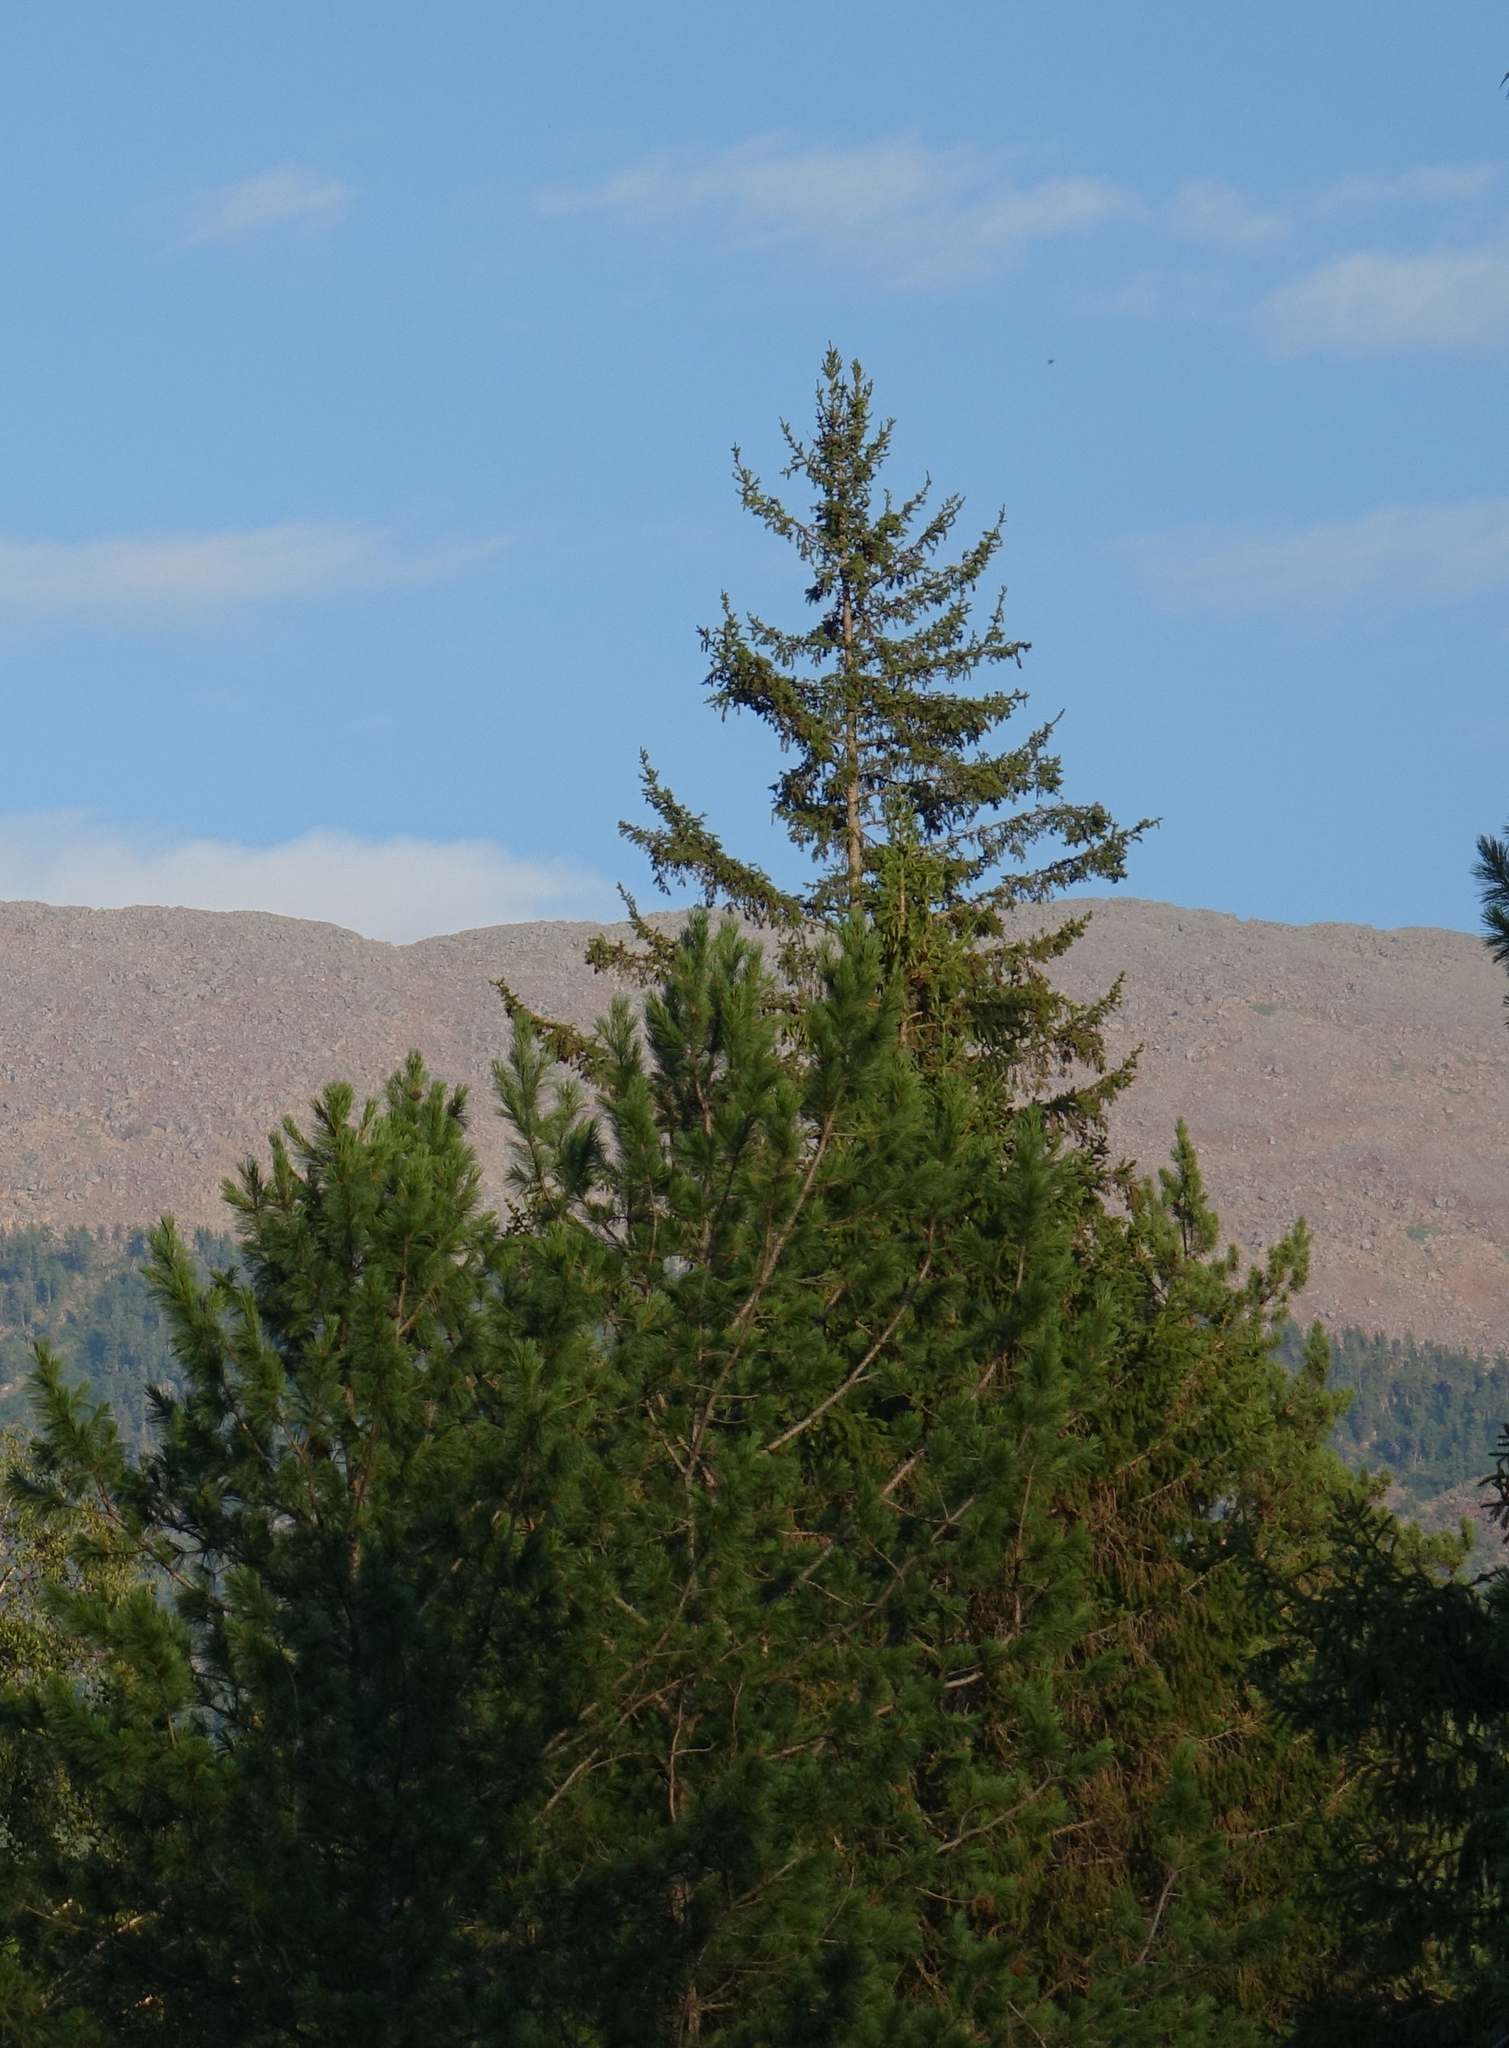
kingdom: Plantae
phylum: Tracheophyta
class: Pinopsida
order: Pinales
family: Pinaceae
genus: Picea
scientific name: Picea obovata
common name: Siberian spruce
